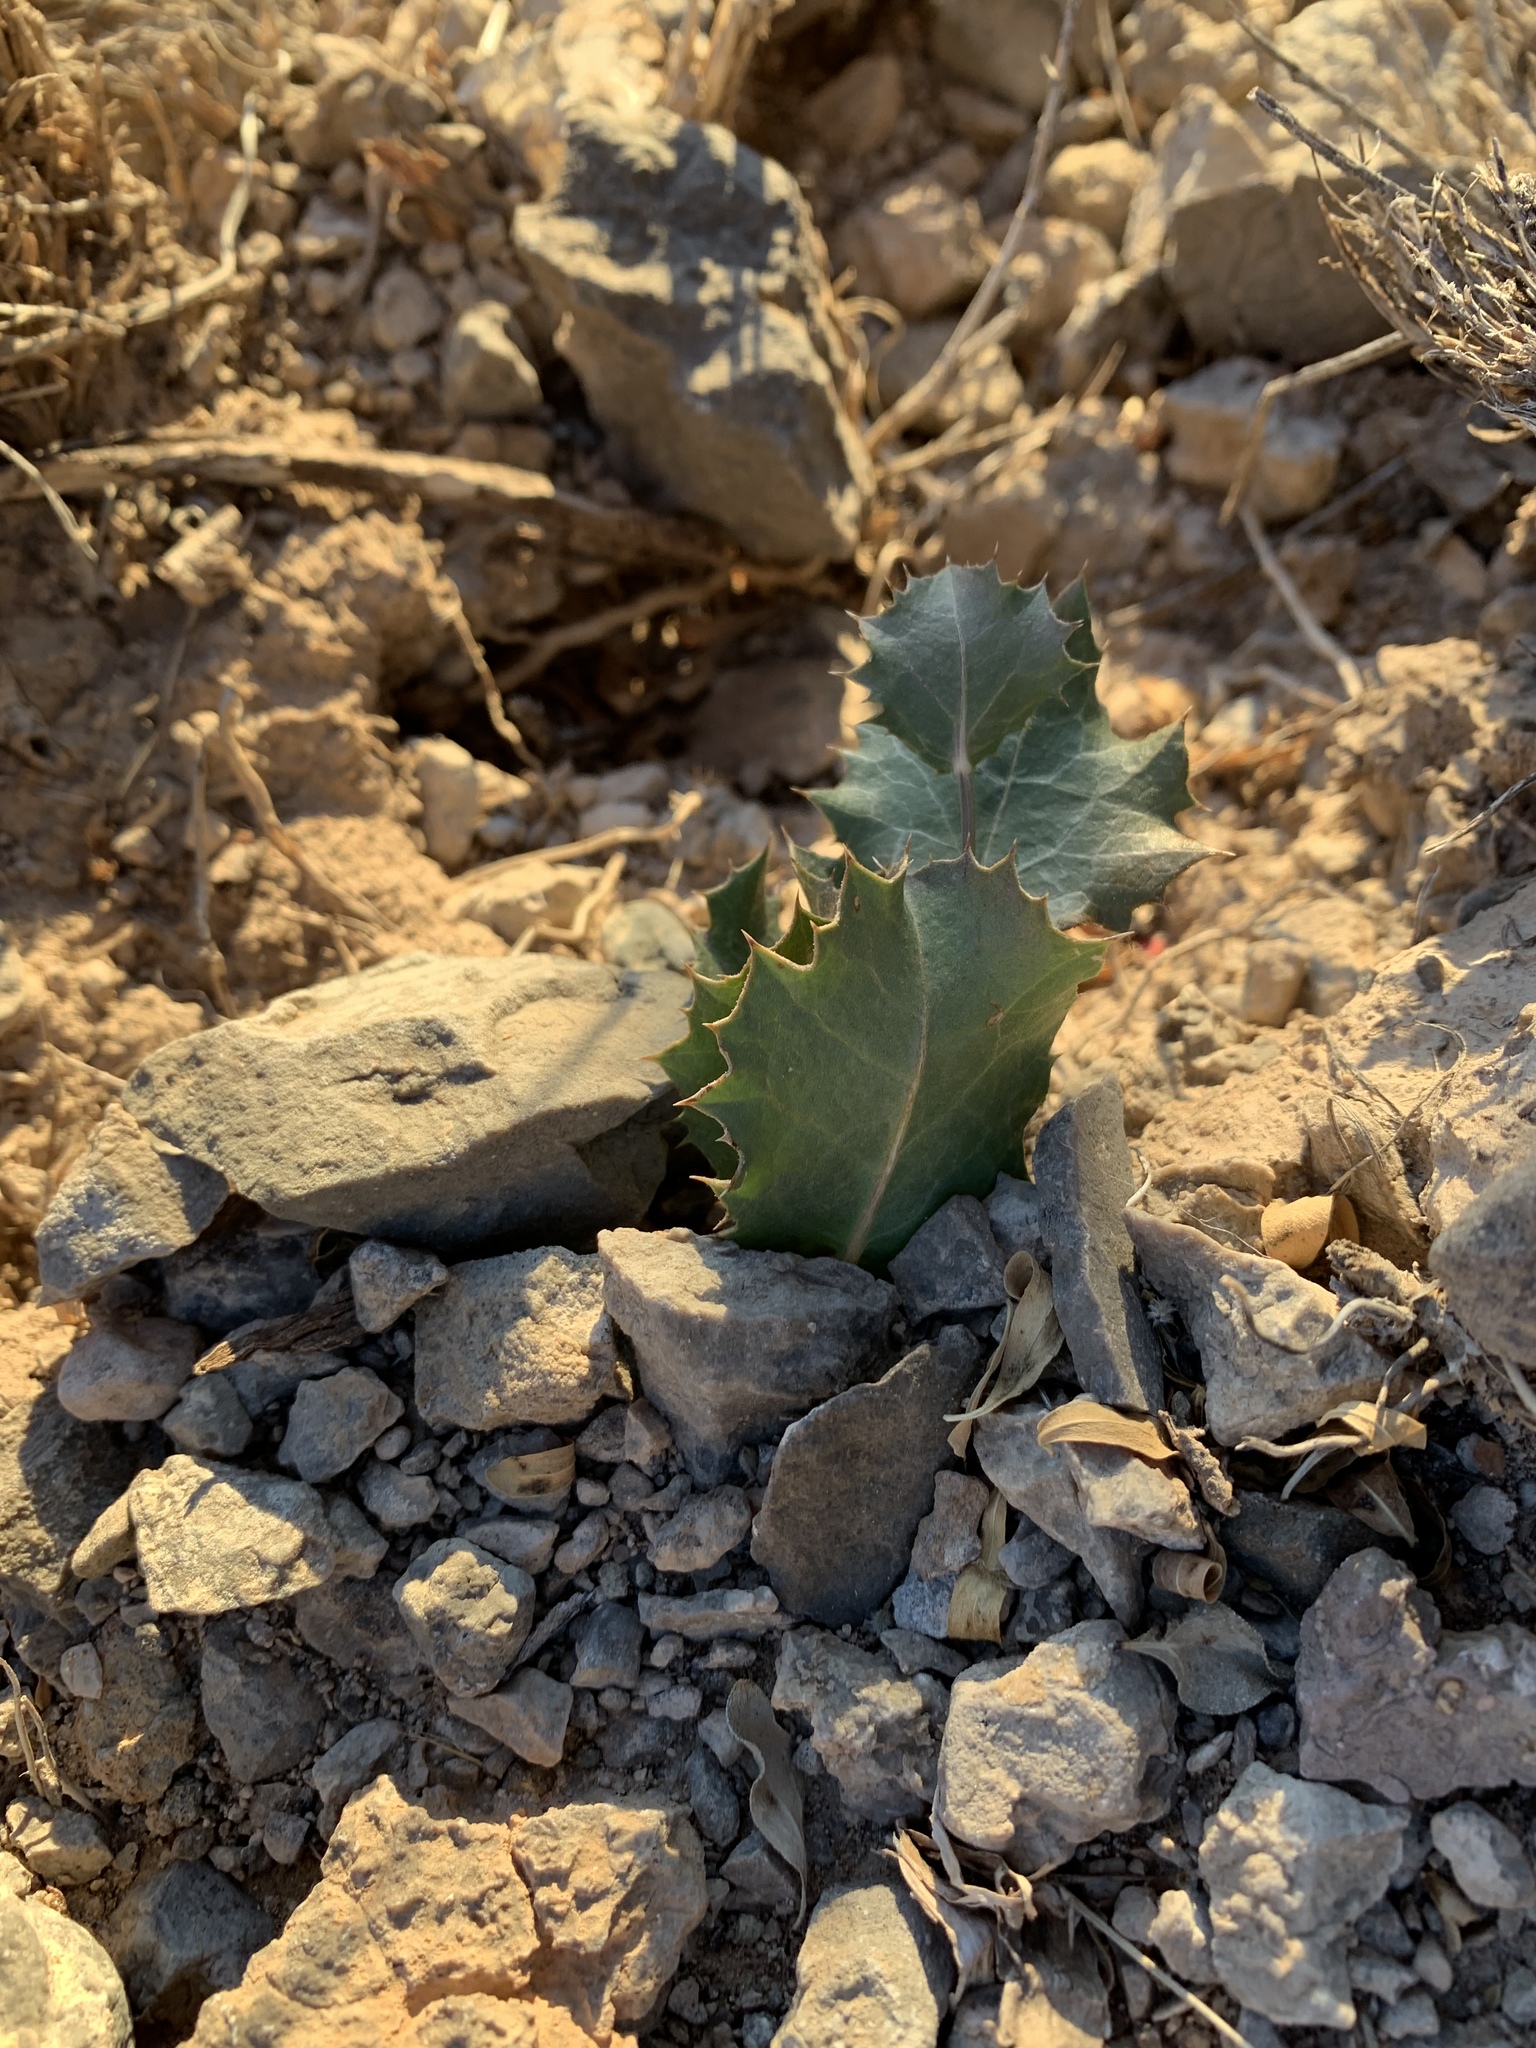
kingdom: Plantae
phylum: Tracheophyta
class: Magnoliopsida
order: Asterales
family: Asteraceae
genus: Acourtia
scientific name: Acourtia nana
